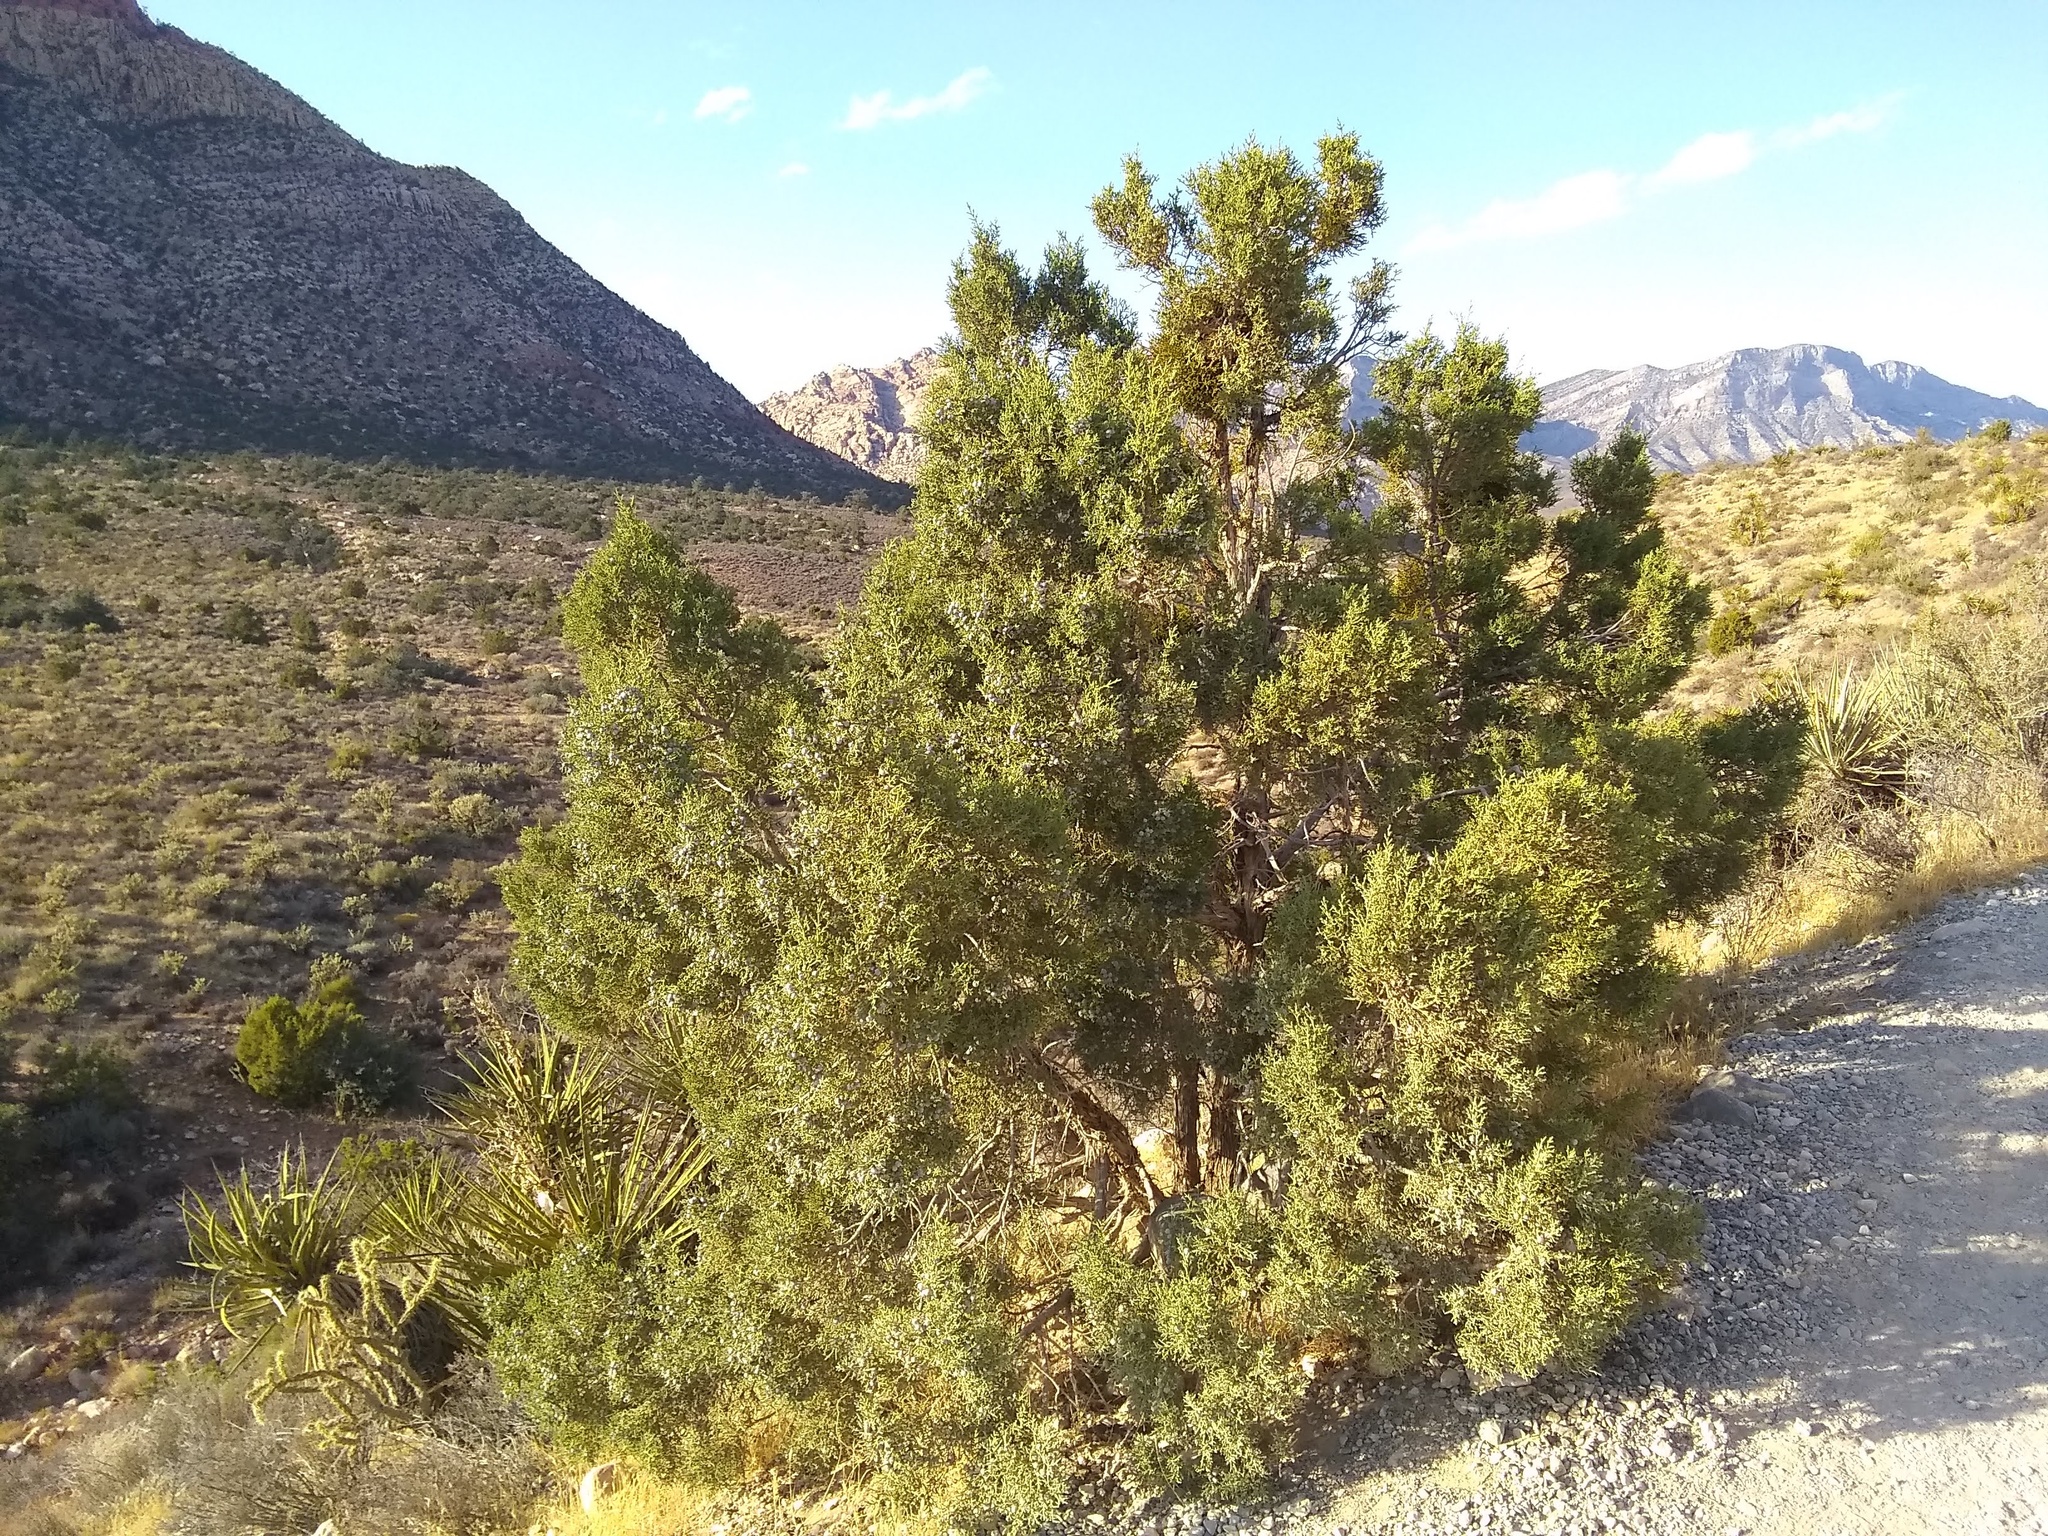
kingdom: Plantae
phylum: Tracheophyta
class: Pinopsida
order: Pinales
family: Cupressaceae
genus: Juniperus
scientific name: Juniperus osteosperma
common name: Utah juniper
